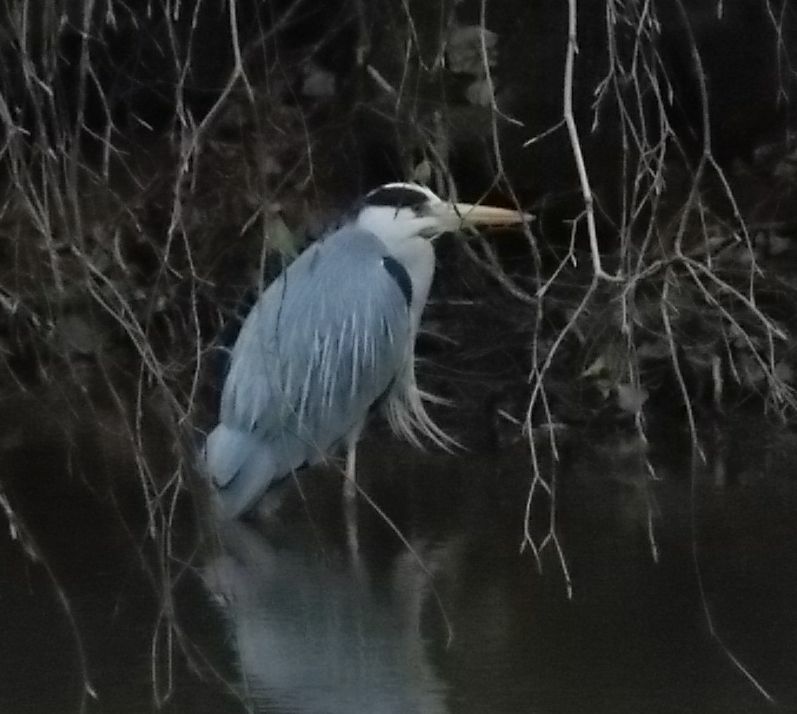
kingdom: Animalia
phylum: Chordata
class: Aves
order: Pelecaniformes
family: Ardeidae
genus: Ardea
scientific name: Ardea cinerea
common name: Grey heron
